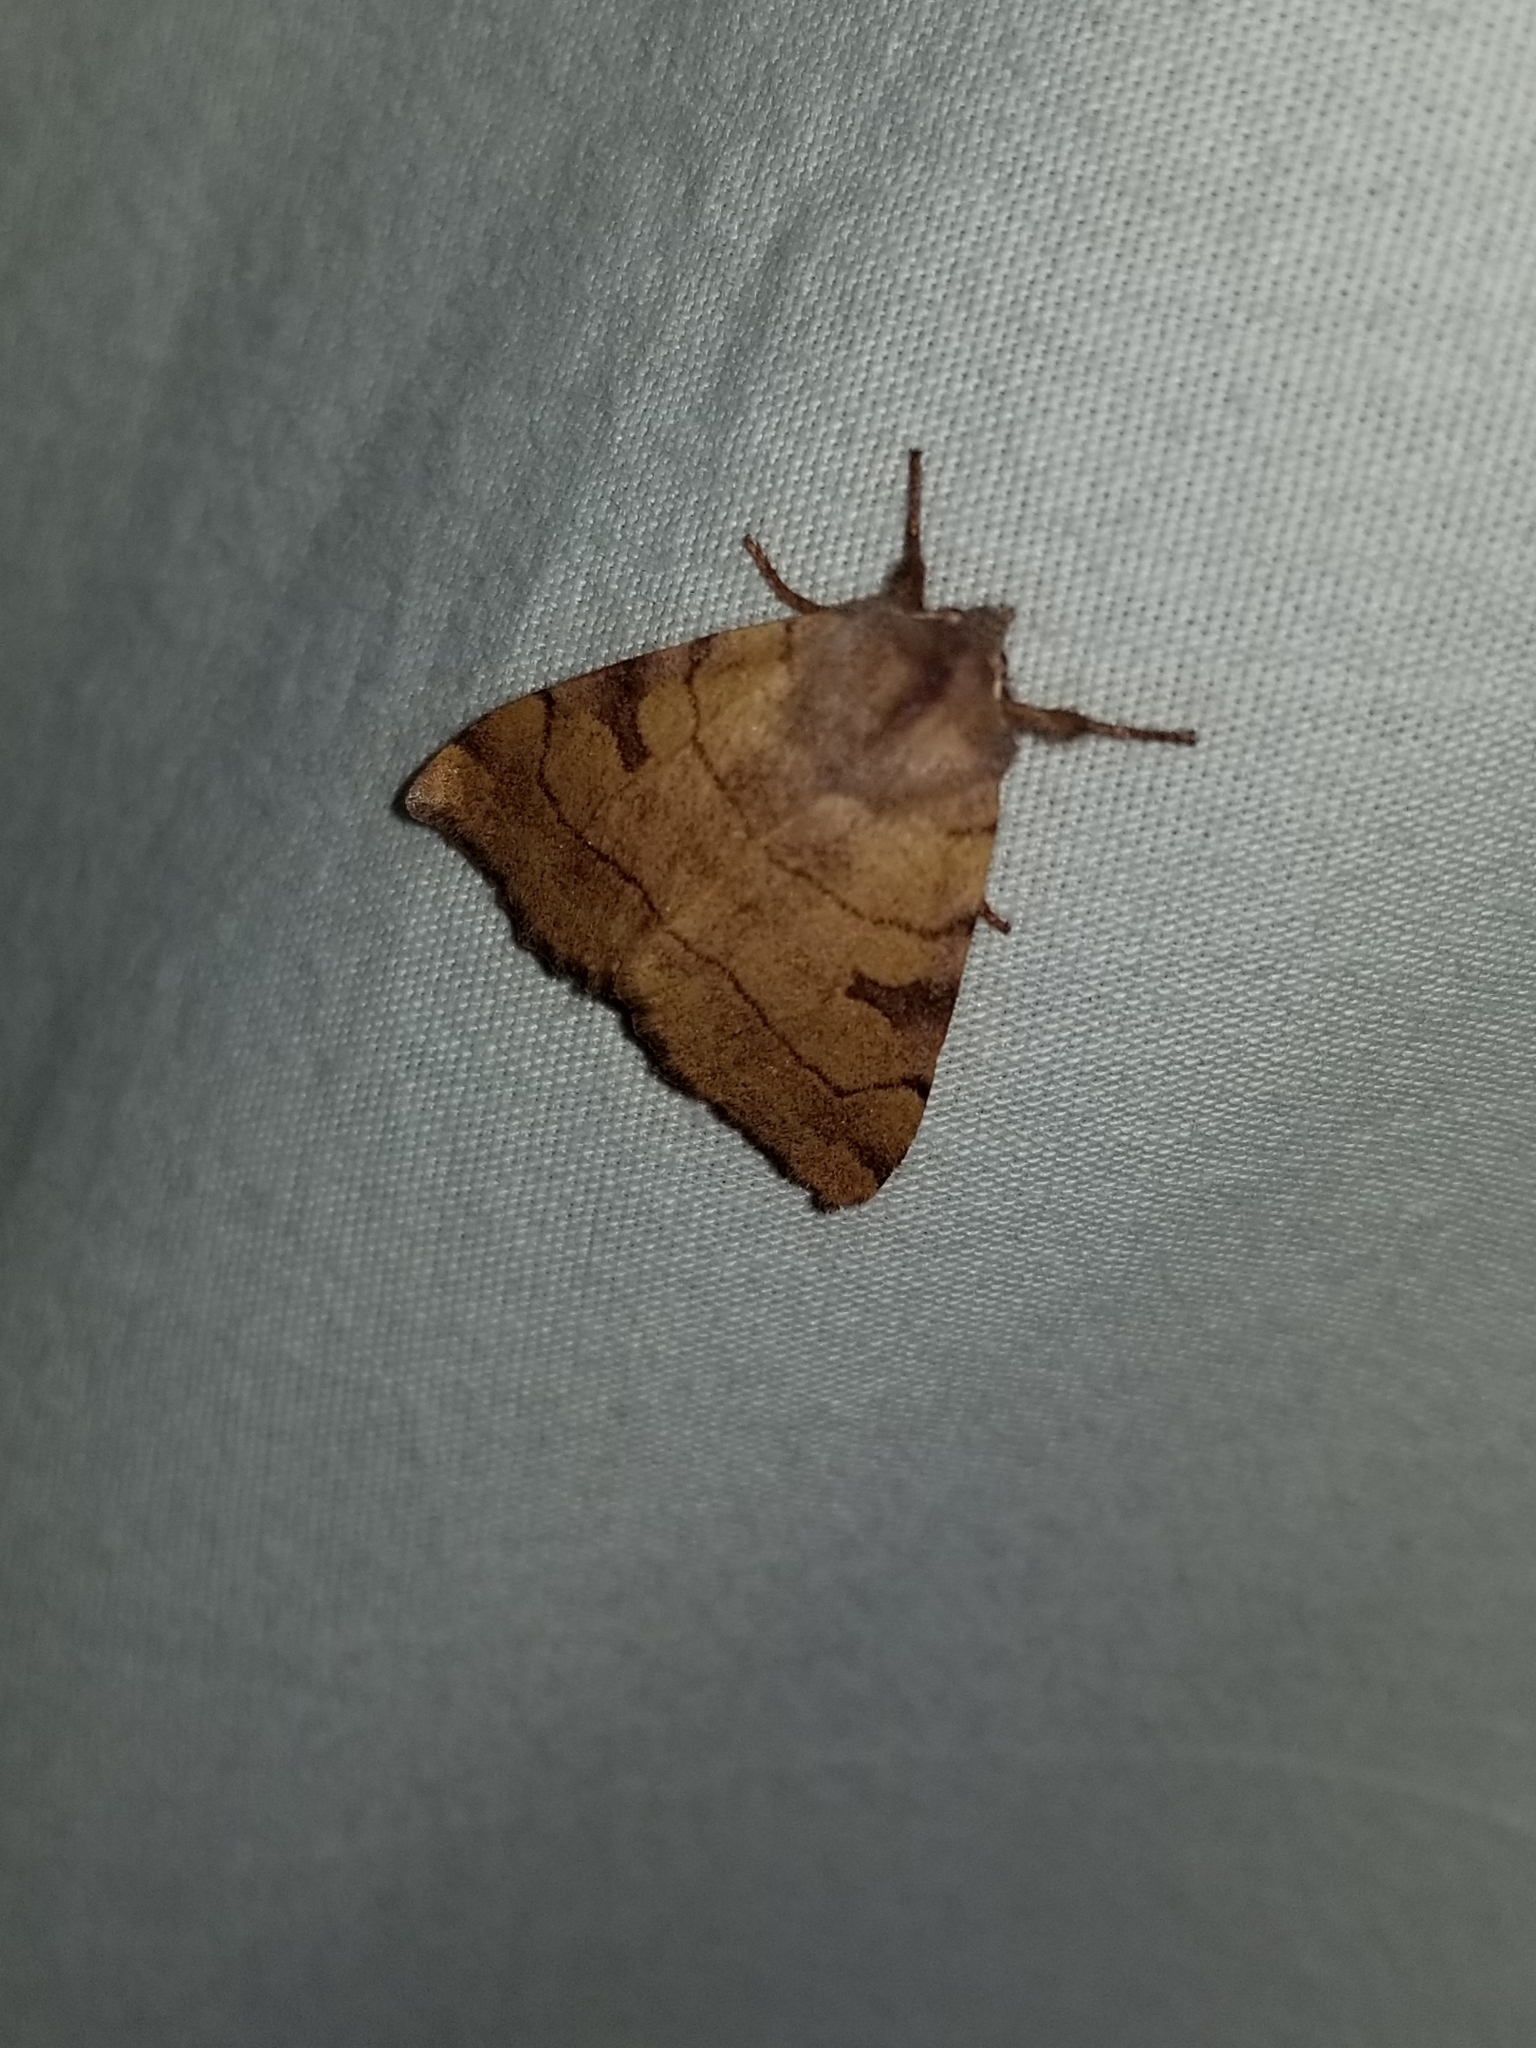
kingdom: Animalia
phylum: Arthropoda
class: Insecta
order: Lepidoptera
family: Noctuidae
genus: Choephora
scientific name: Choephora fungorum
